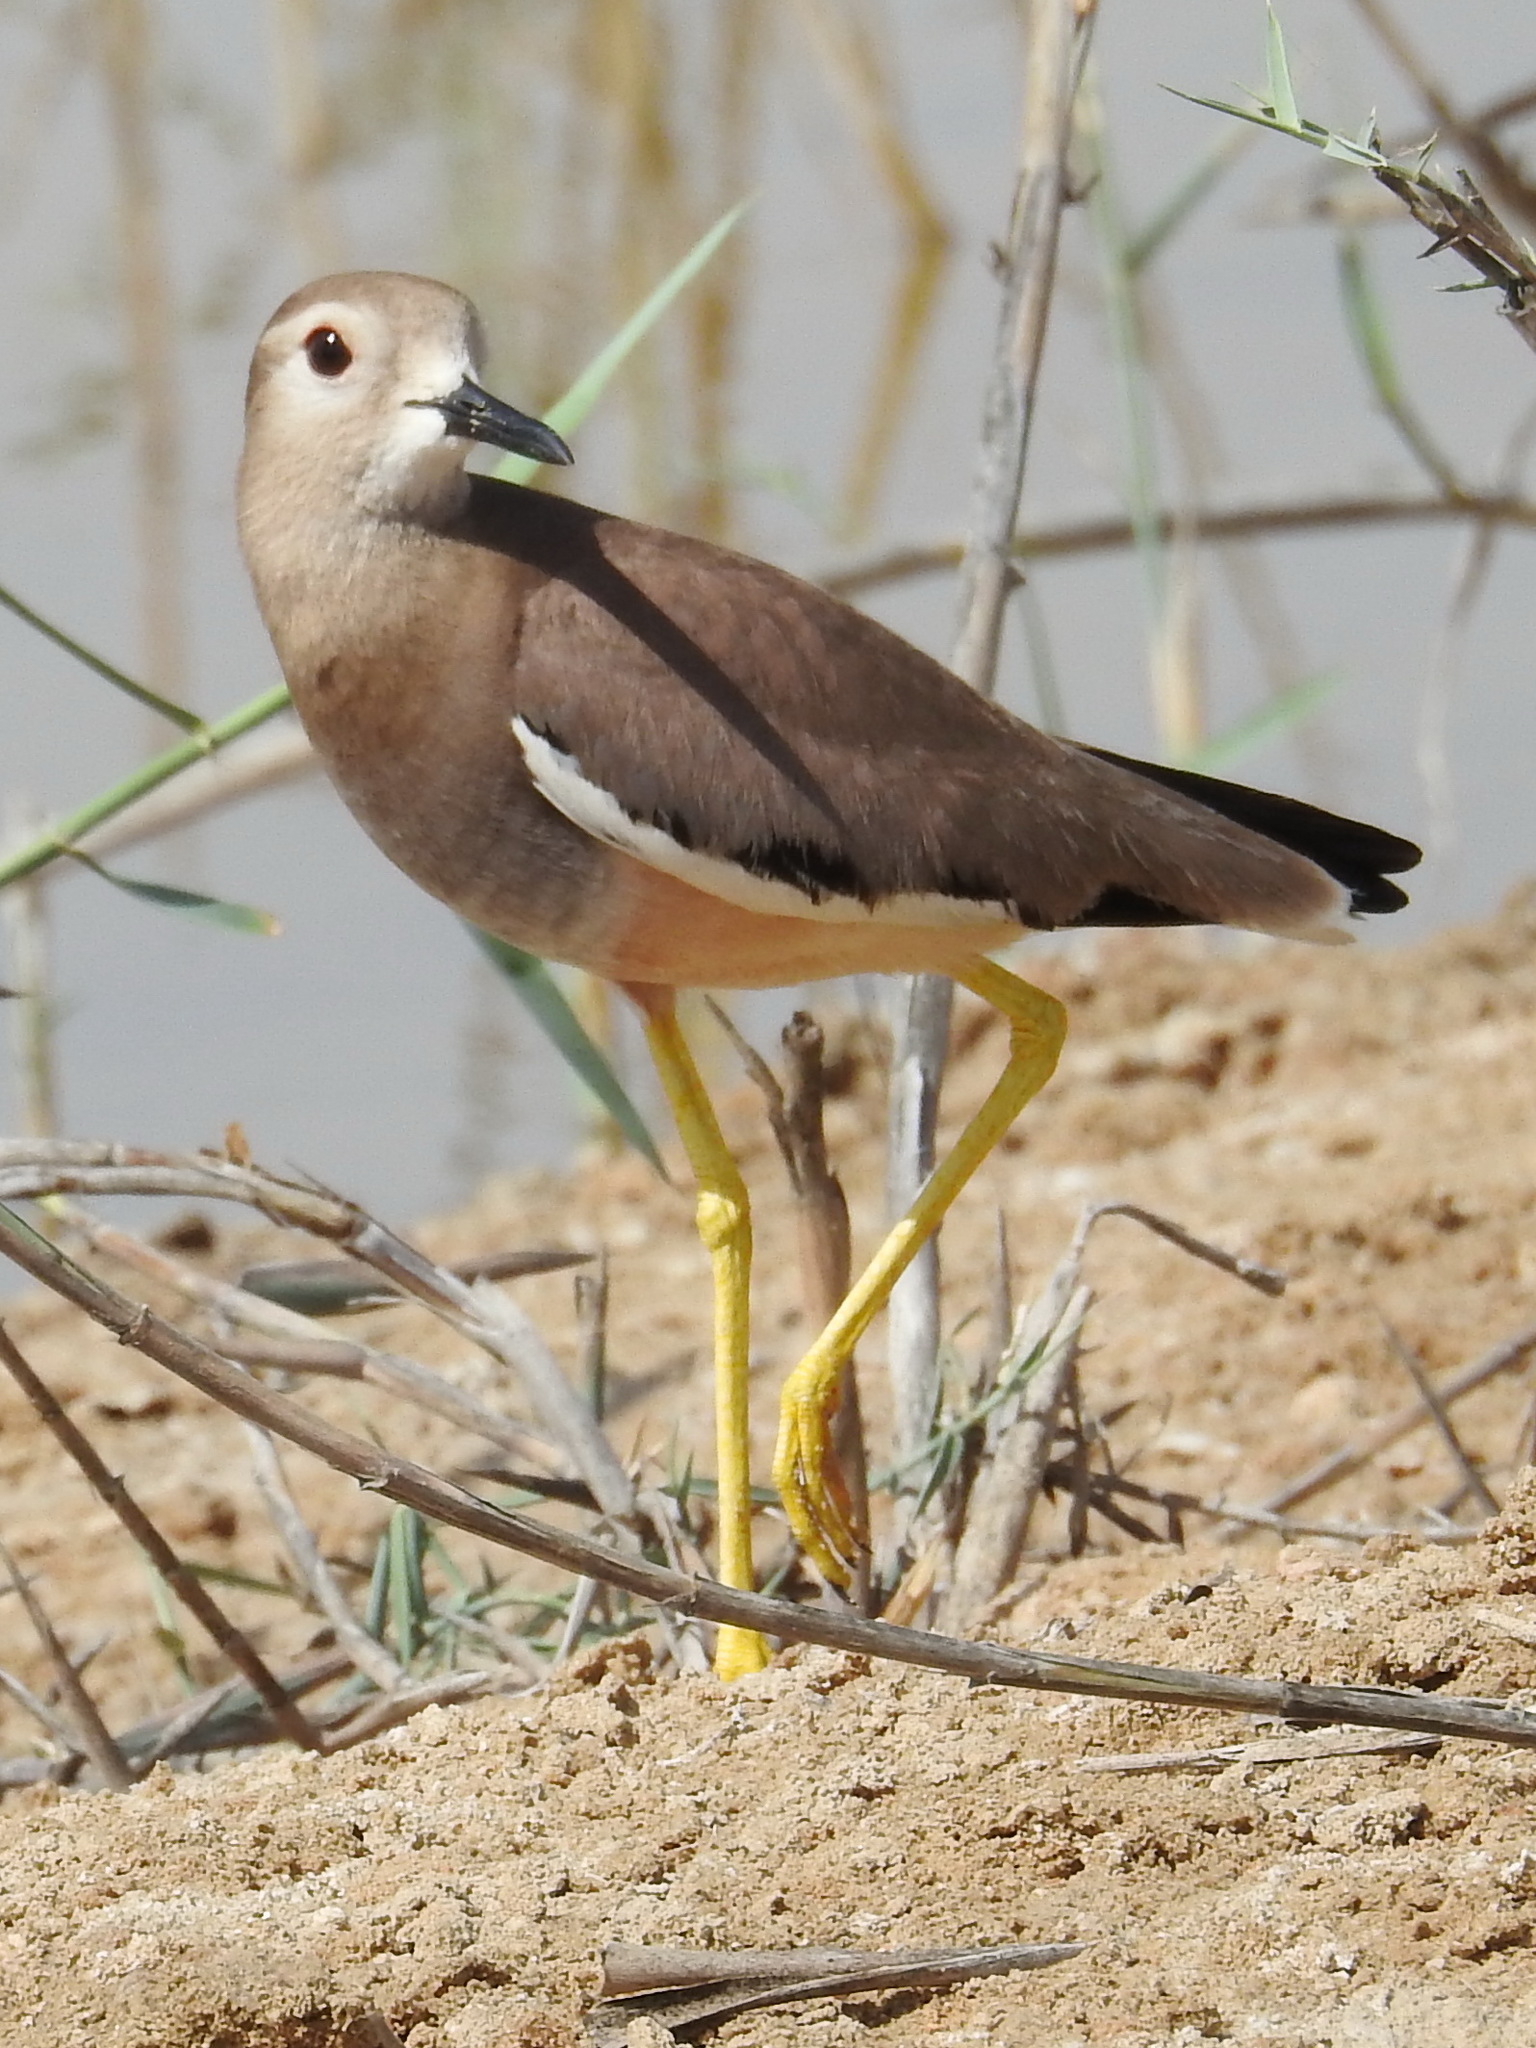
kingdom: Animalia
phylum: Chordata
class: Aves
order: Charadriiformes
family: Charadriidae
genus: Vanellus
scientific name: Vanellus leucurus
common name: White-tailed lapwing
